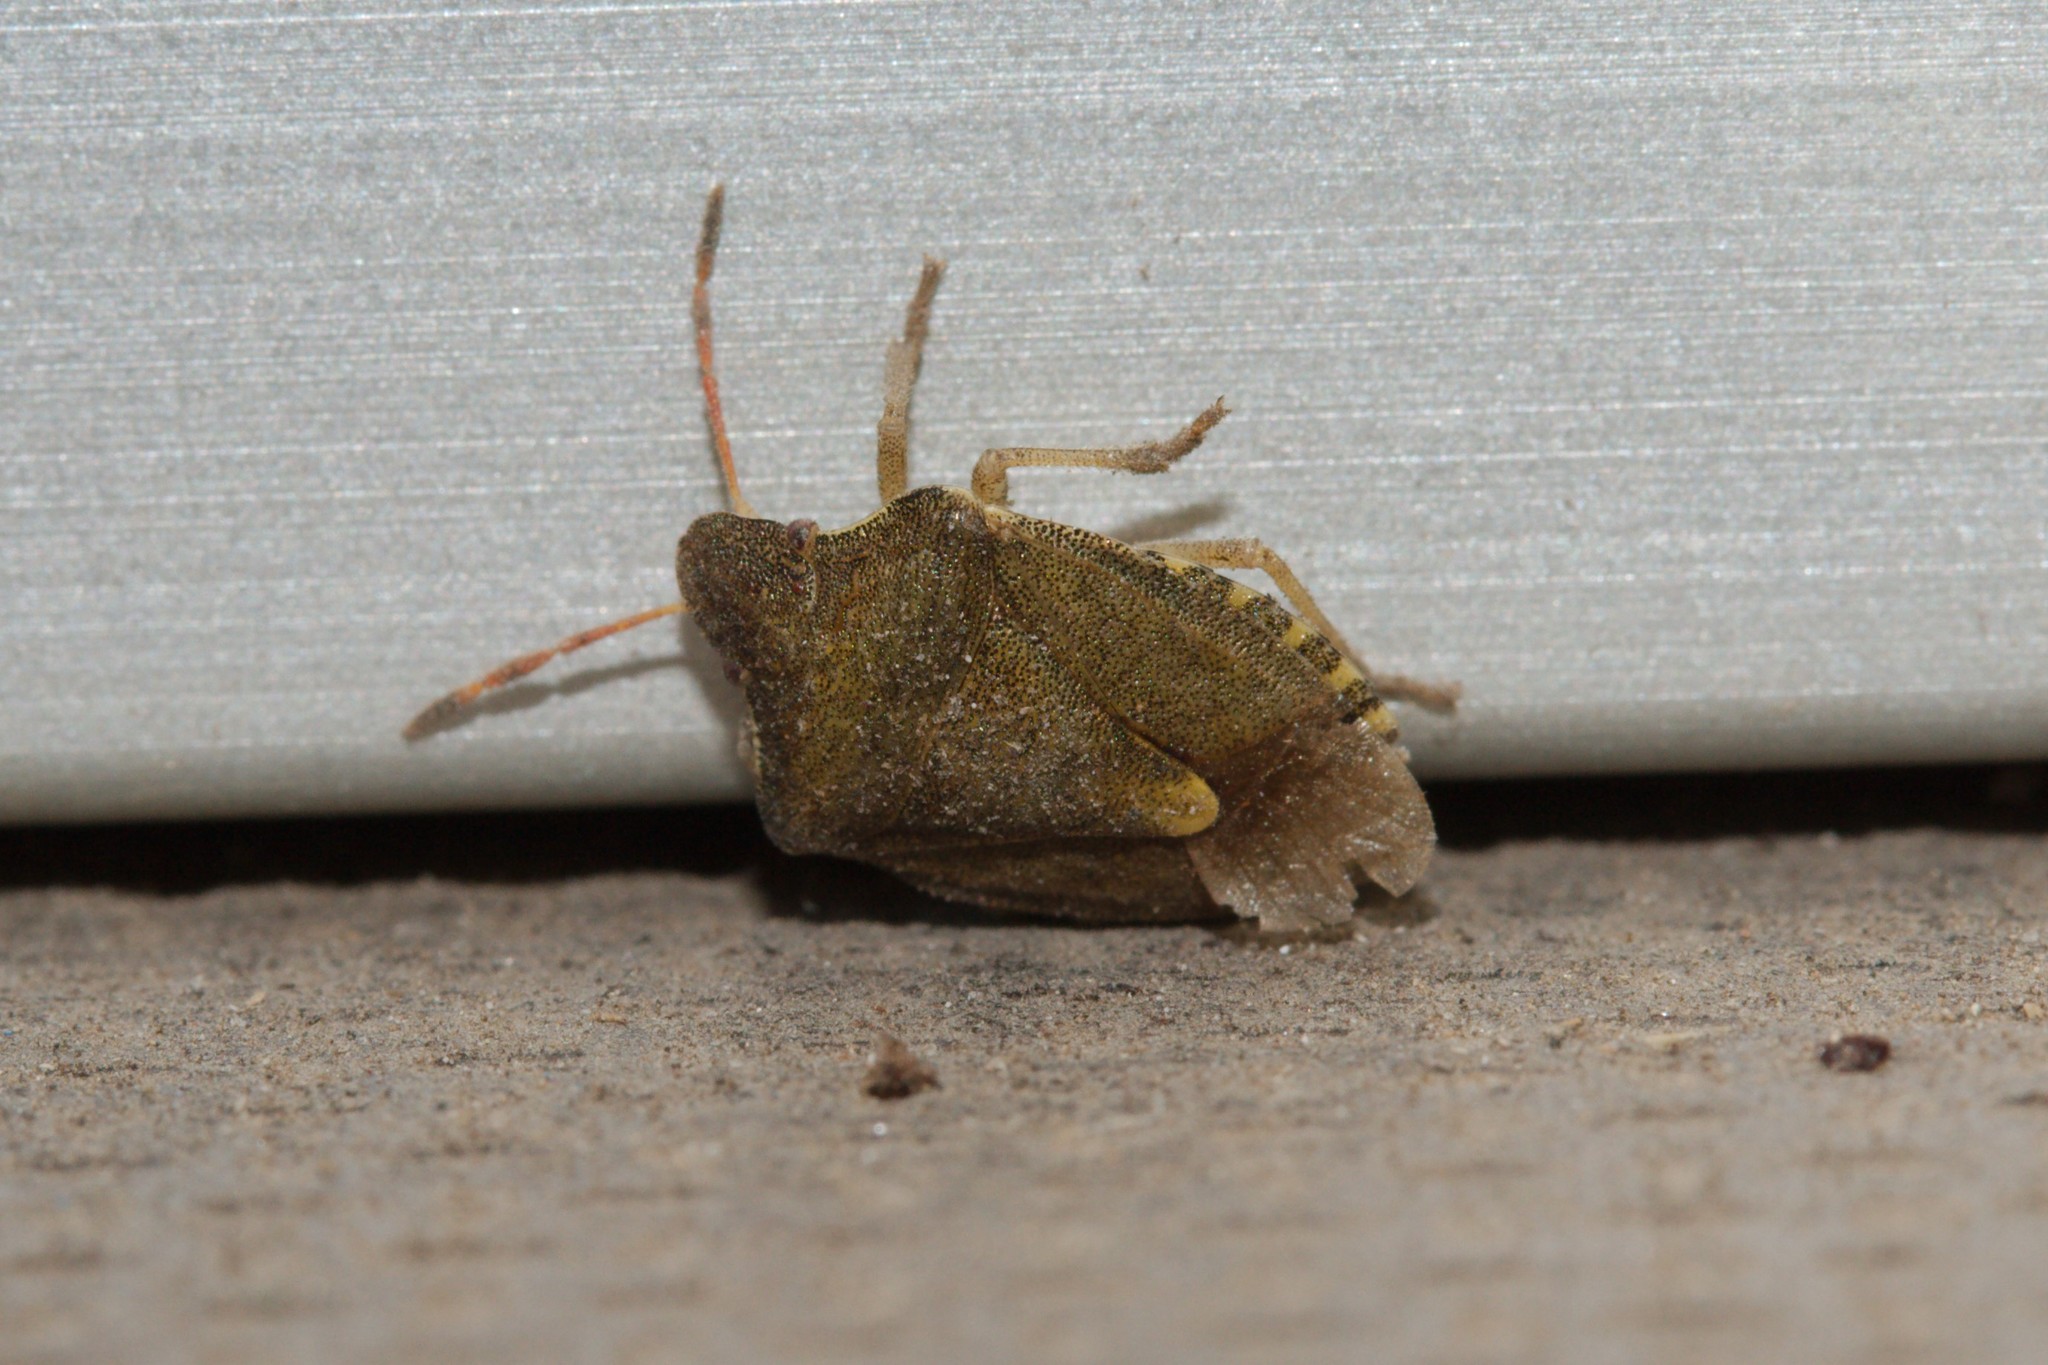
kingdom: Animalia
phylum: Arthropoda
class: Insecta
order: Hemiptera
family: Pentatomidae
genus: Holcostethus
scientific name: Holcostethus strictus
